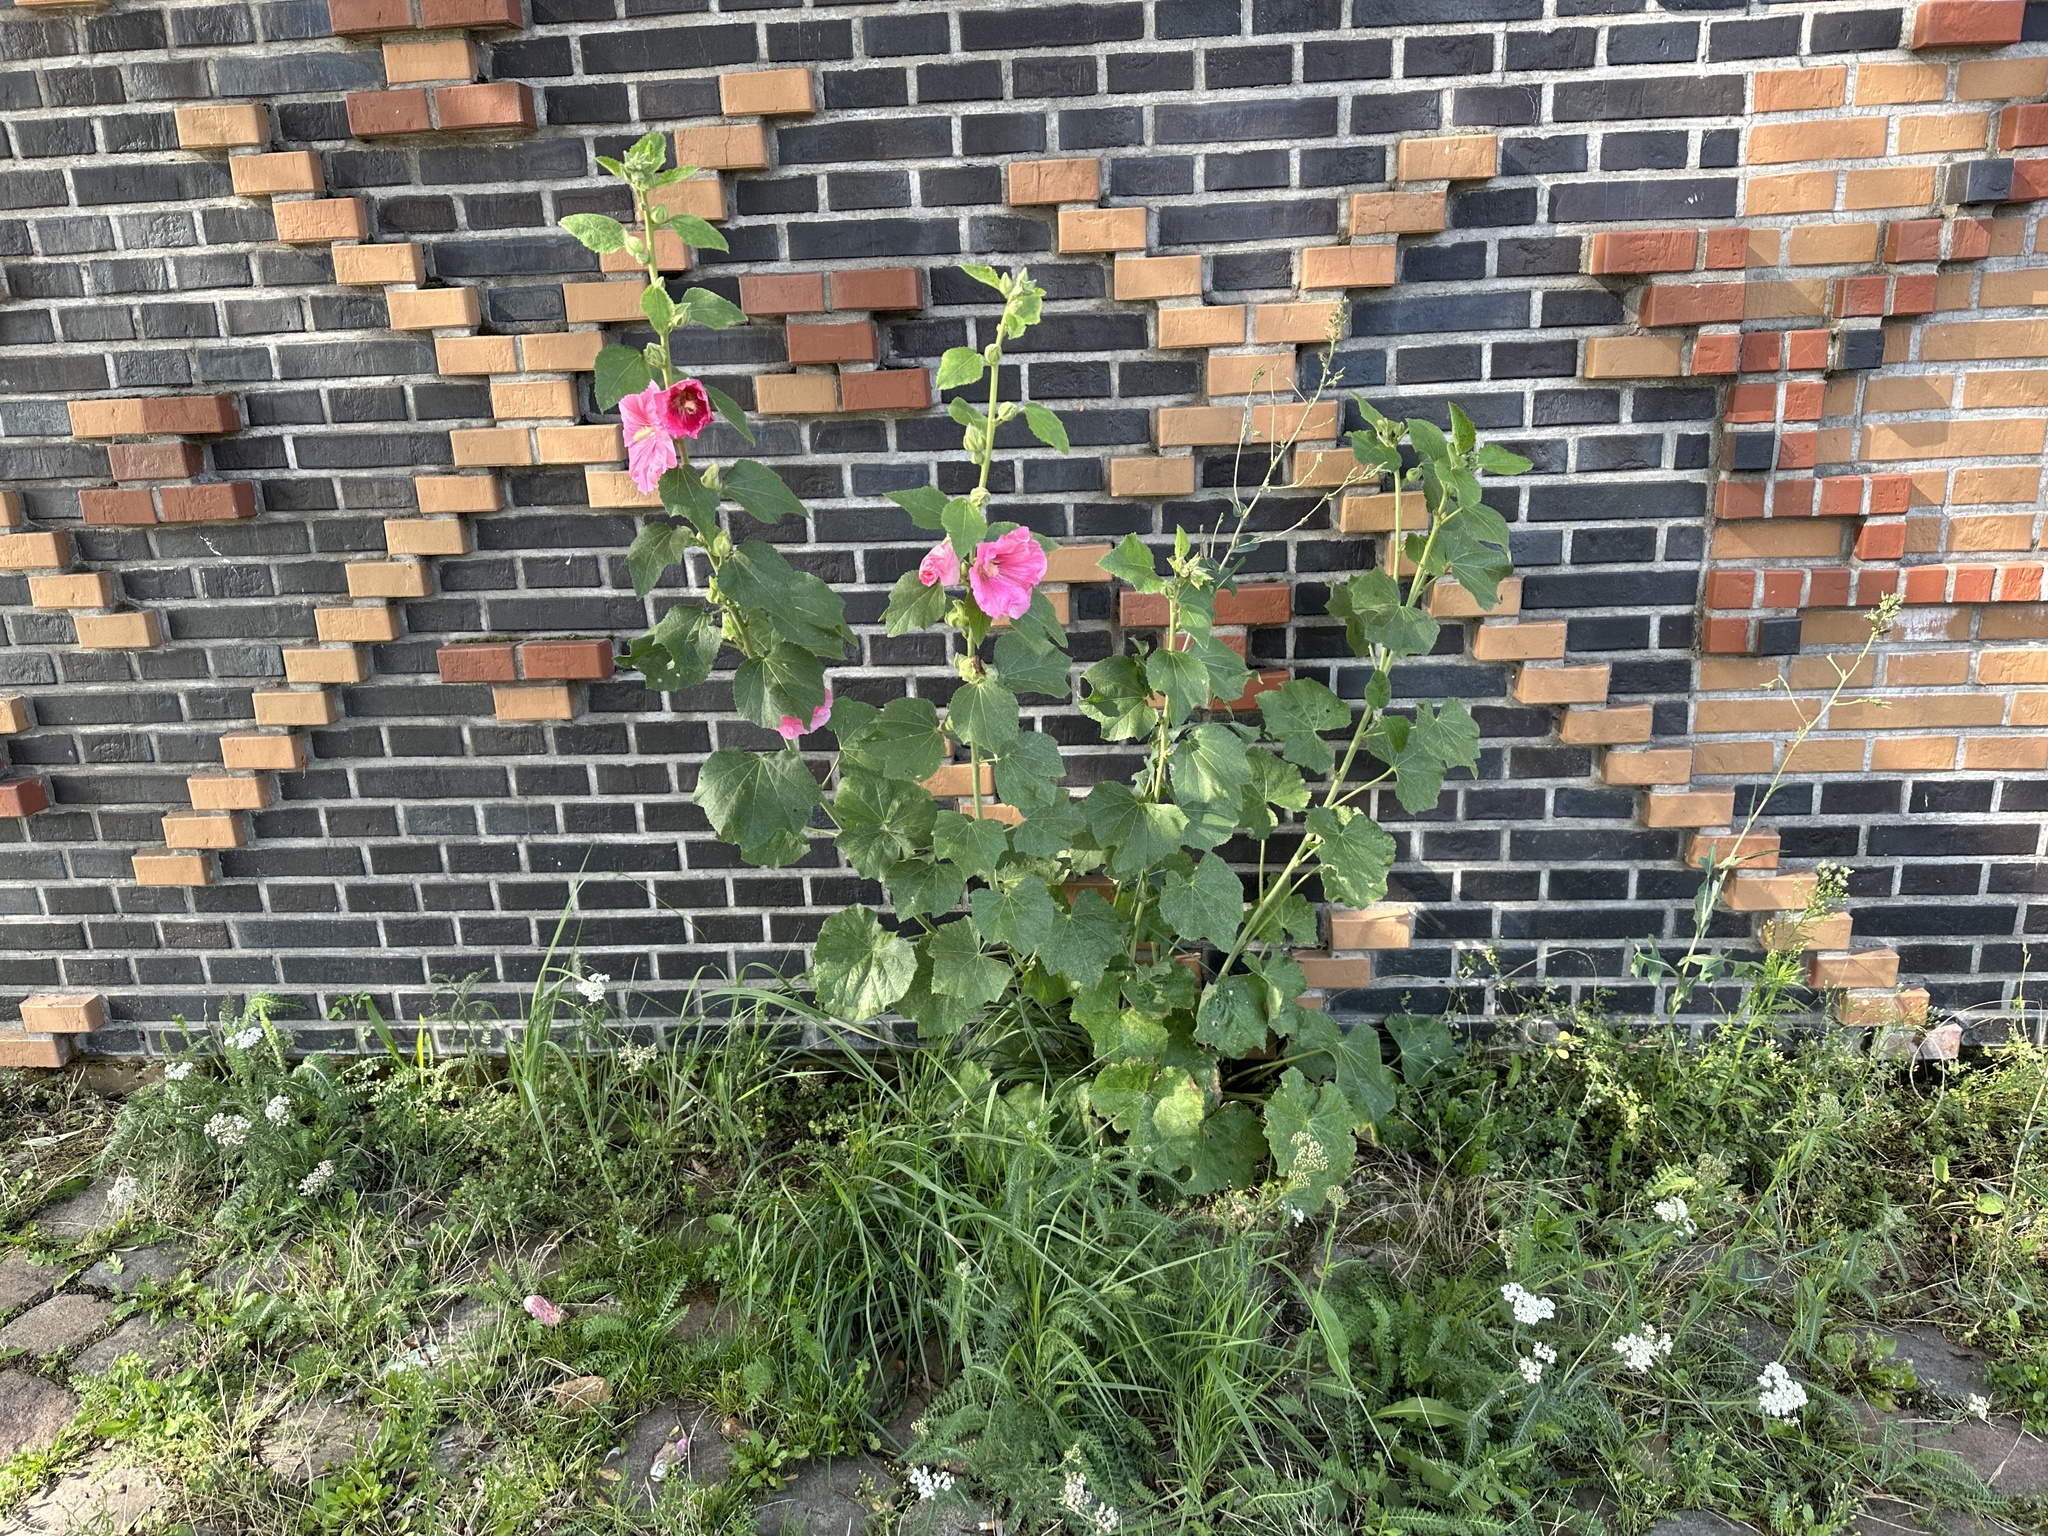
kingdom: Plantae
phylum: Tracheophyta
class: Magnoliopsida
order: Malvales
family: Malvaceae
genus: Alcea
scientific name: Alcea rosea
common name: Hollyhock
